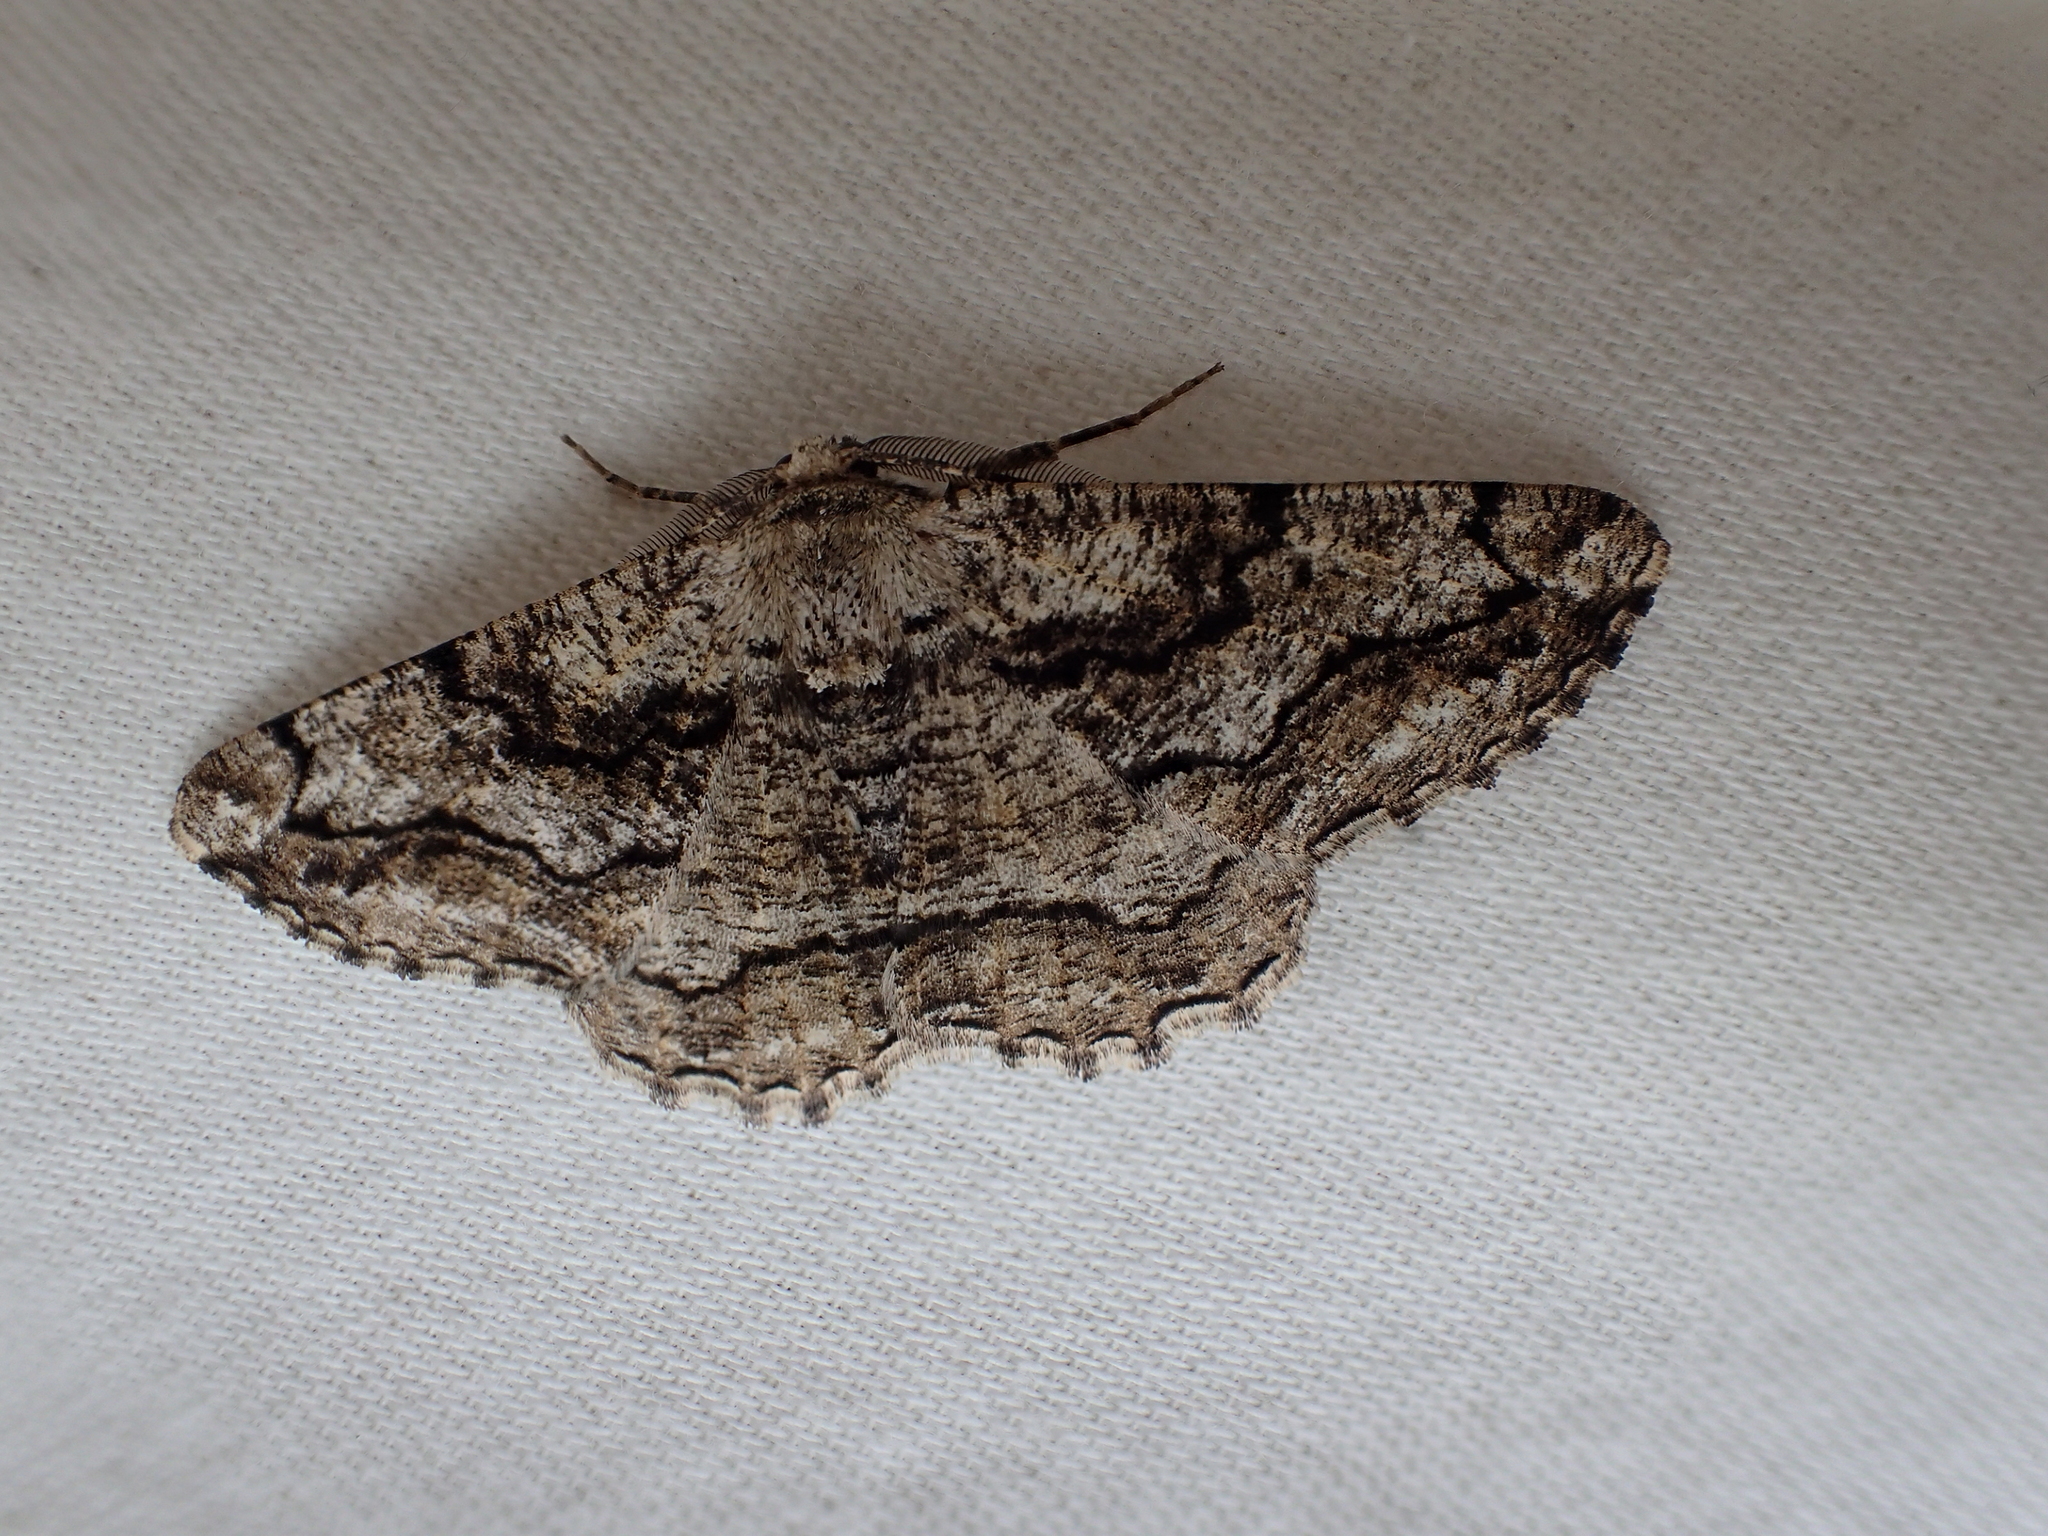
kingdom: Animalia
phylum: Arthropoda
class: Insecta
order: Lepidoptera
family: Geometridae
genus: Synopsia
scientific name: Synopsia sociaria
